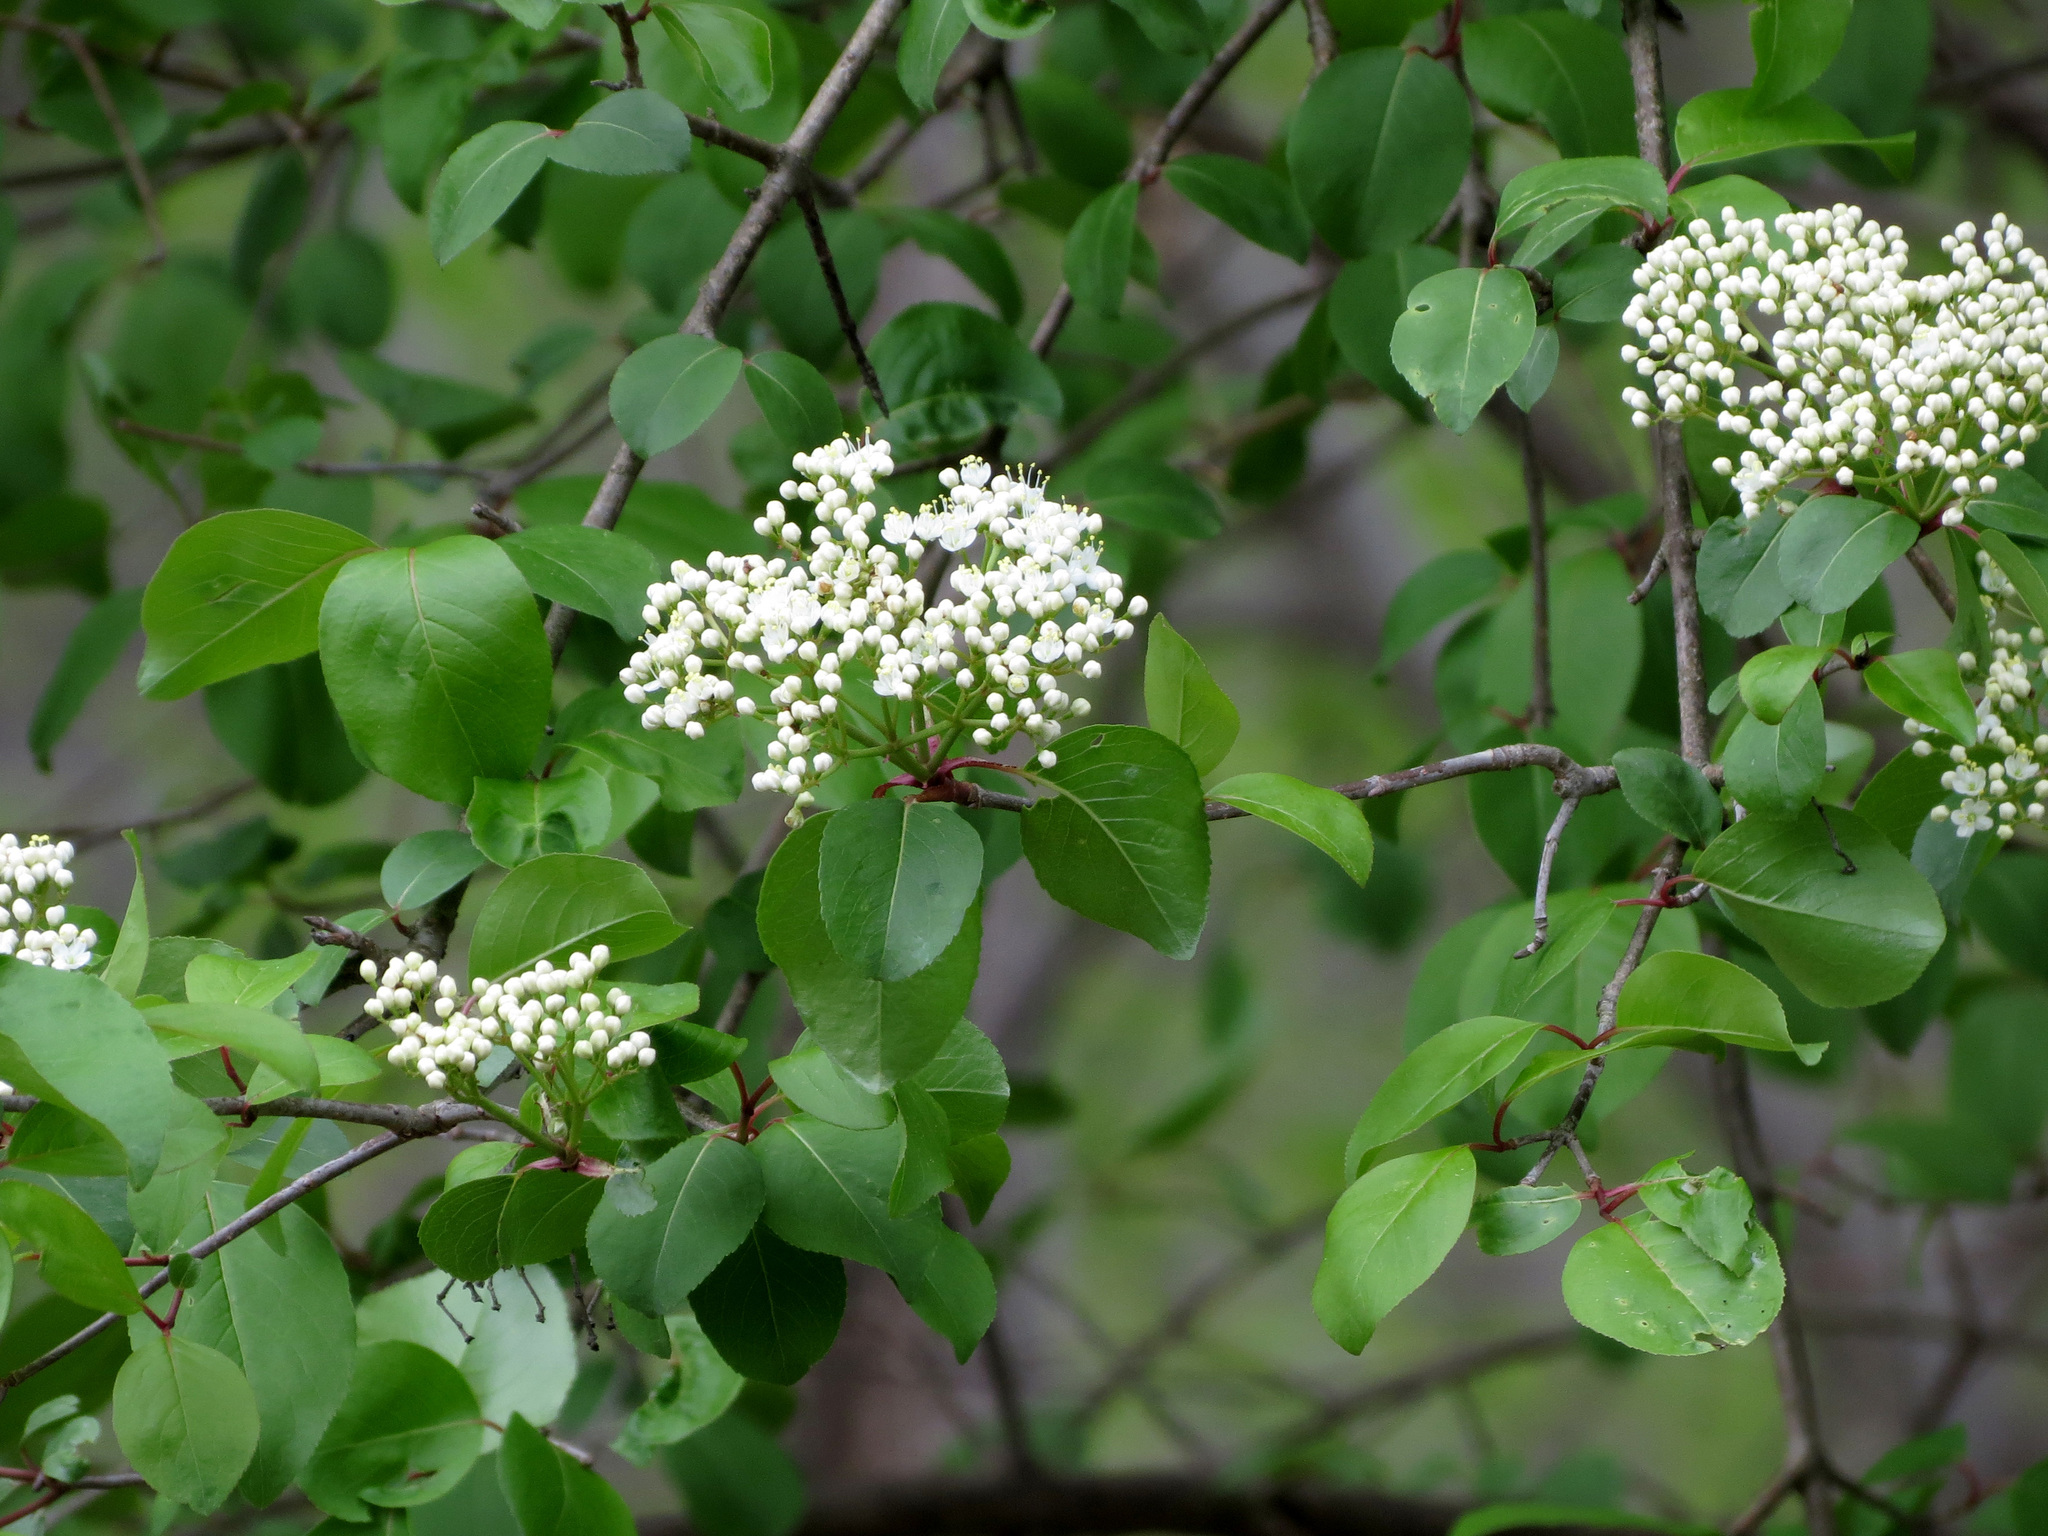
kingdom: Plantae
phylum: Tracheophyta
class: Magnoliopsida
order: Dipsacales
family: Viburnaceae
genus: Viburnum
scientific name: Viburnum prunifolium
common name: Black haw
